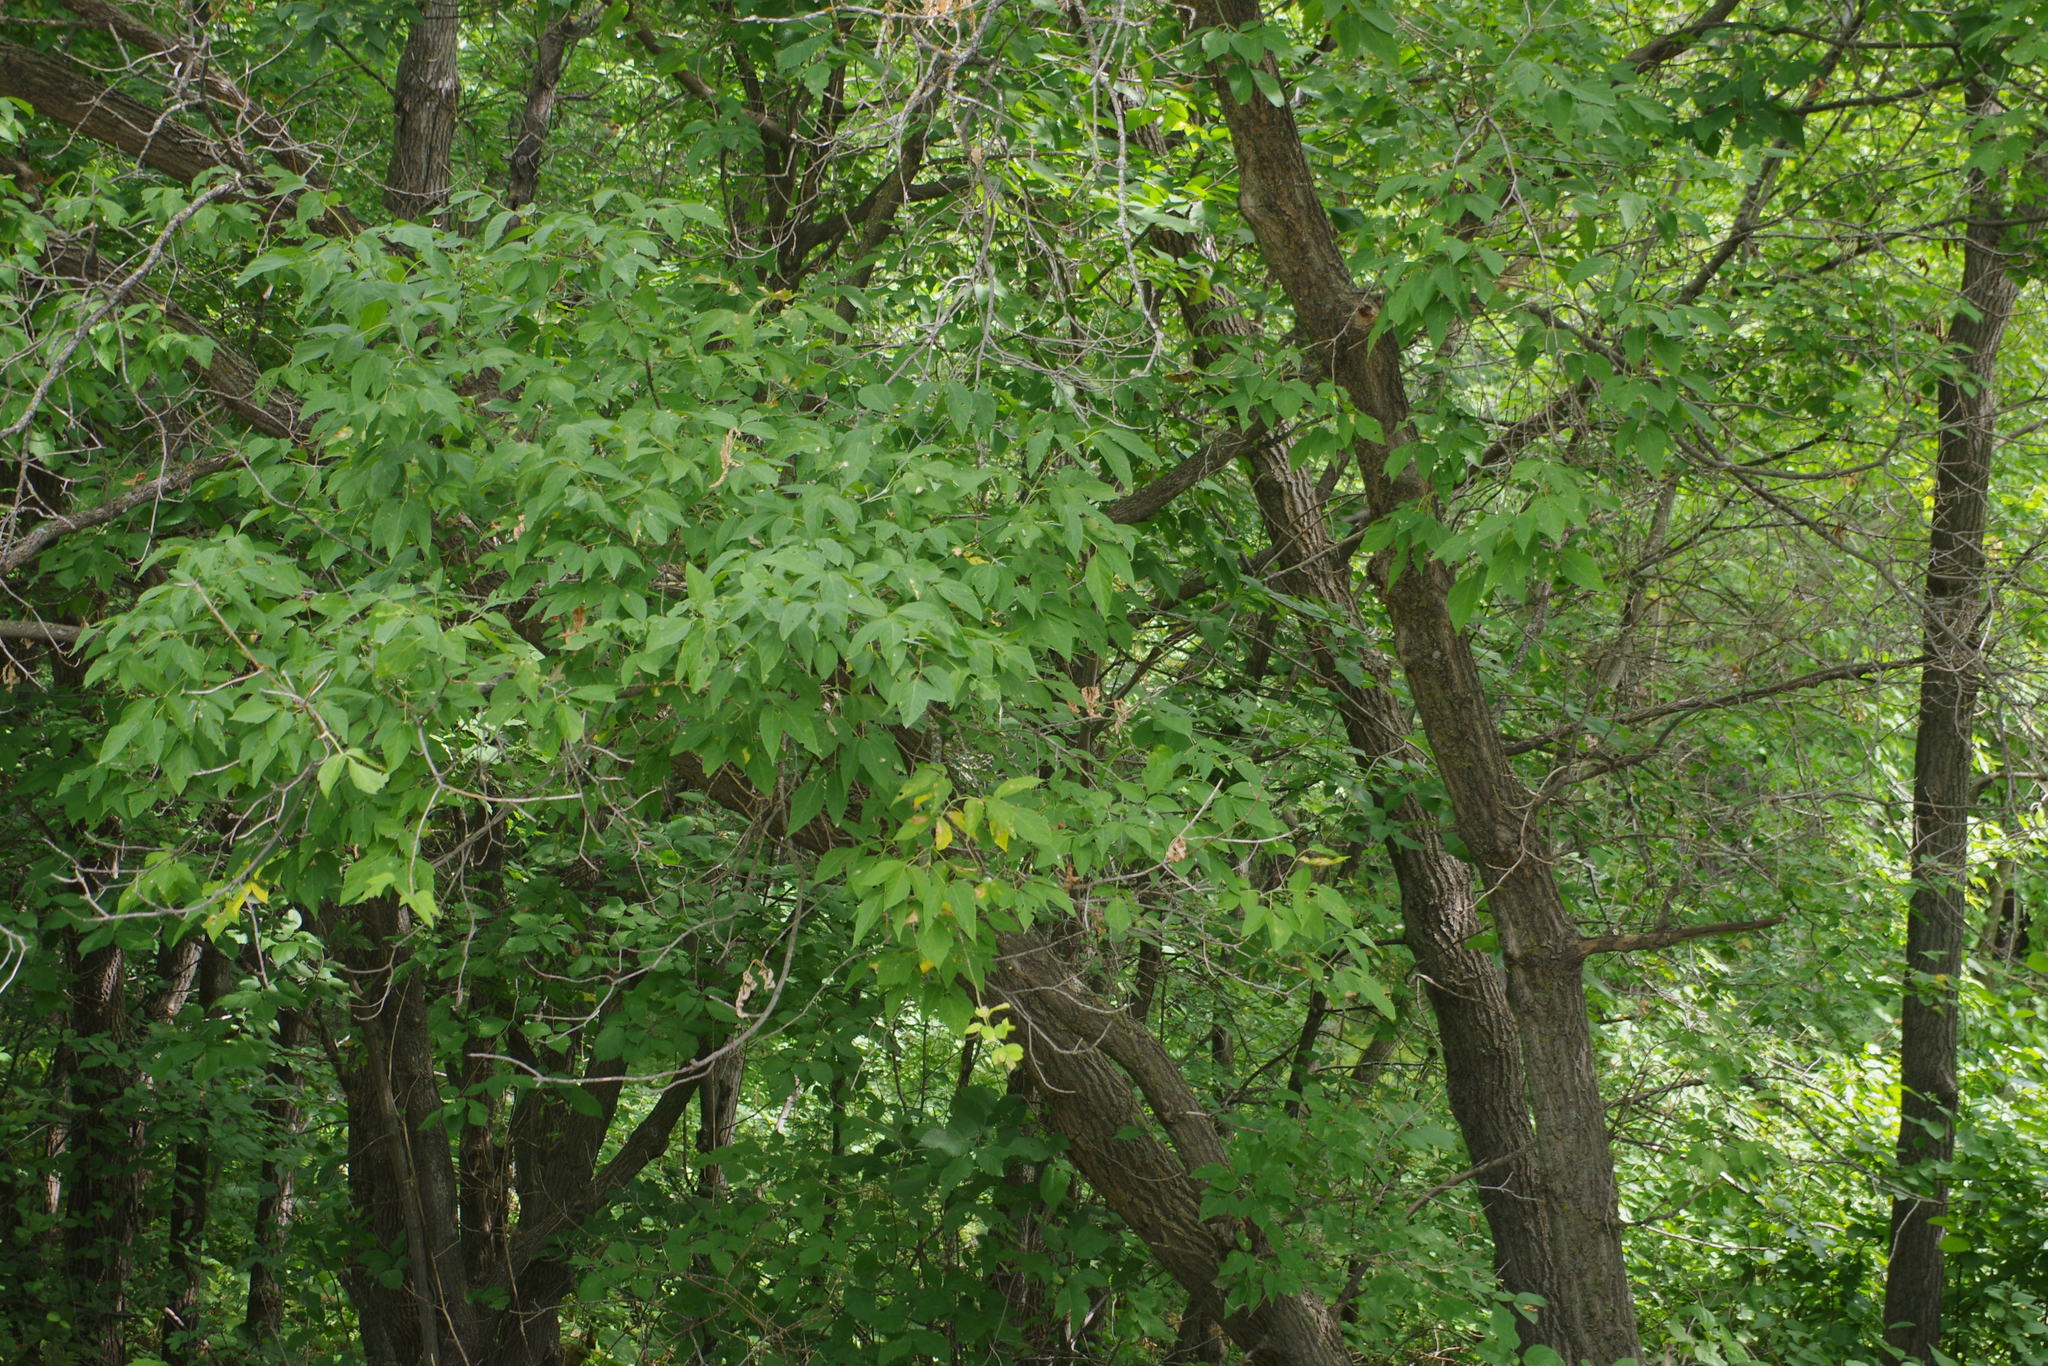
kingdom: Plantae
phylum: Tracheophyta
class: Magnoliopsida
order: Sapindales
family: Sapindaceae
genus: Acer
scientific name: Acer negundo
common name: Ashleaf maple
